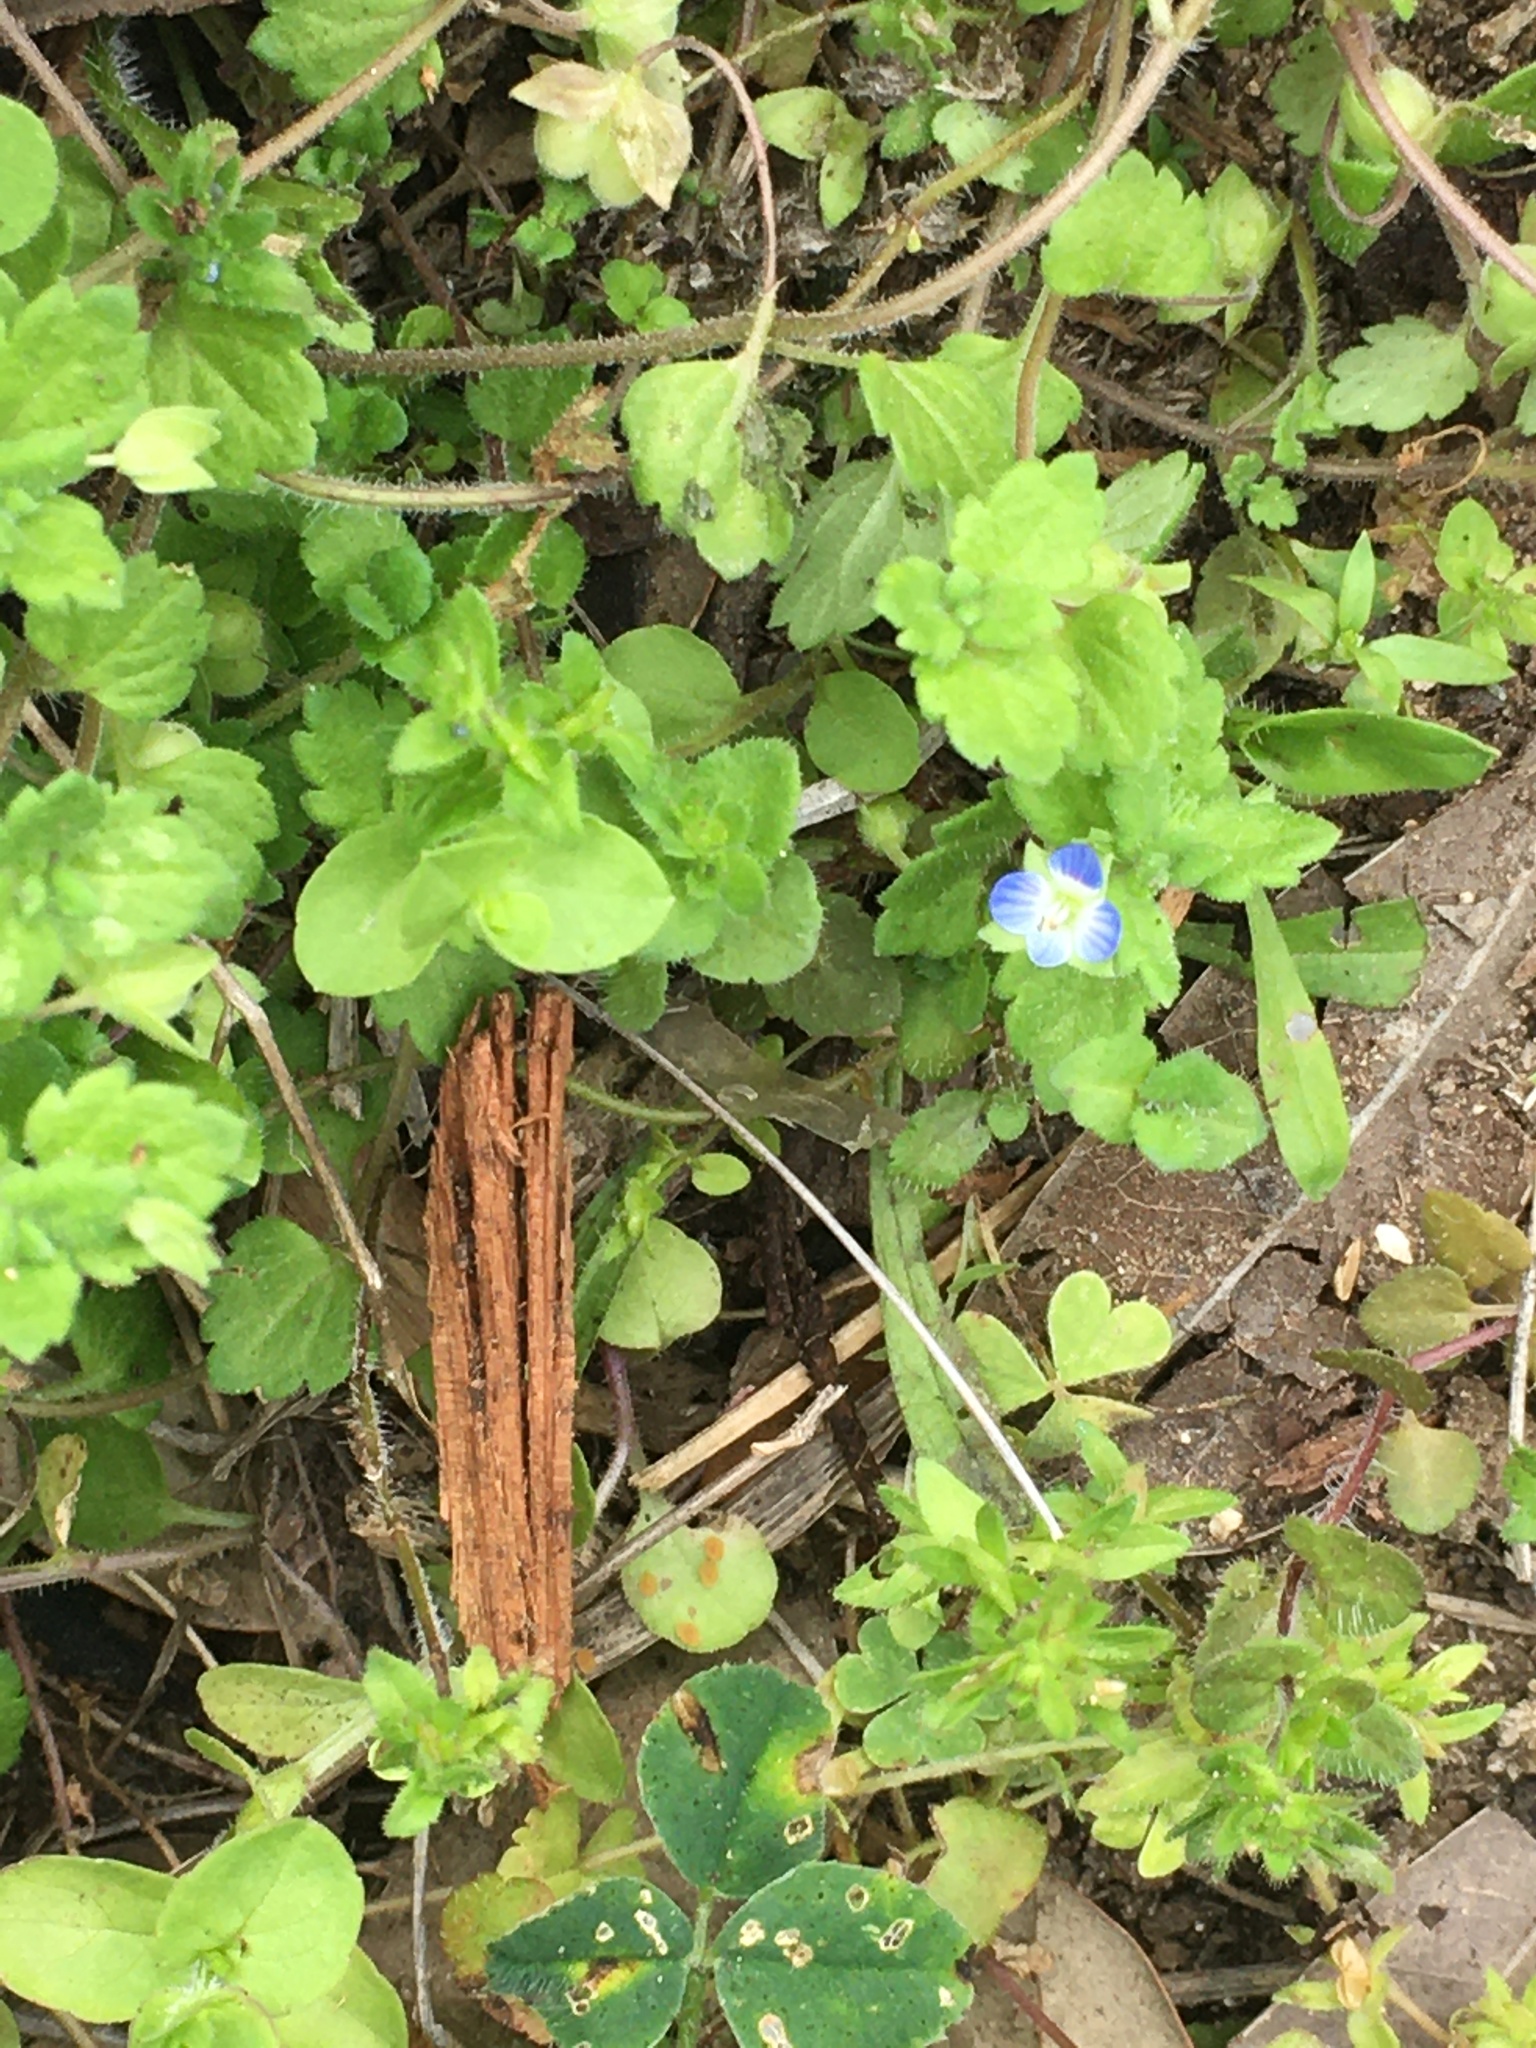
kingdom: Plantae
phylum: Tracheophyta
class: Magnoliopsida
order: Lamiales
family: Plantaginaceae
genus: Veronica
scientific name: Veronica persica
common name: Common field-speedwell
